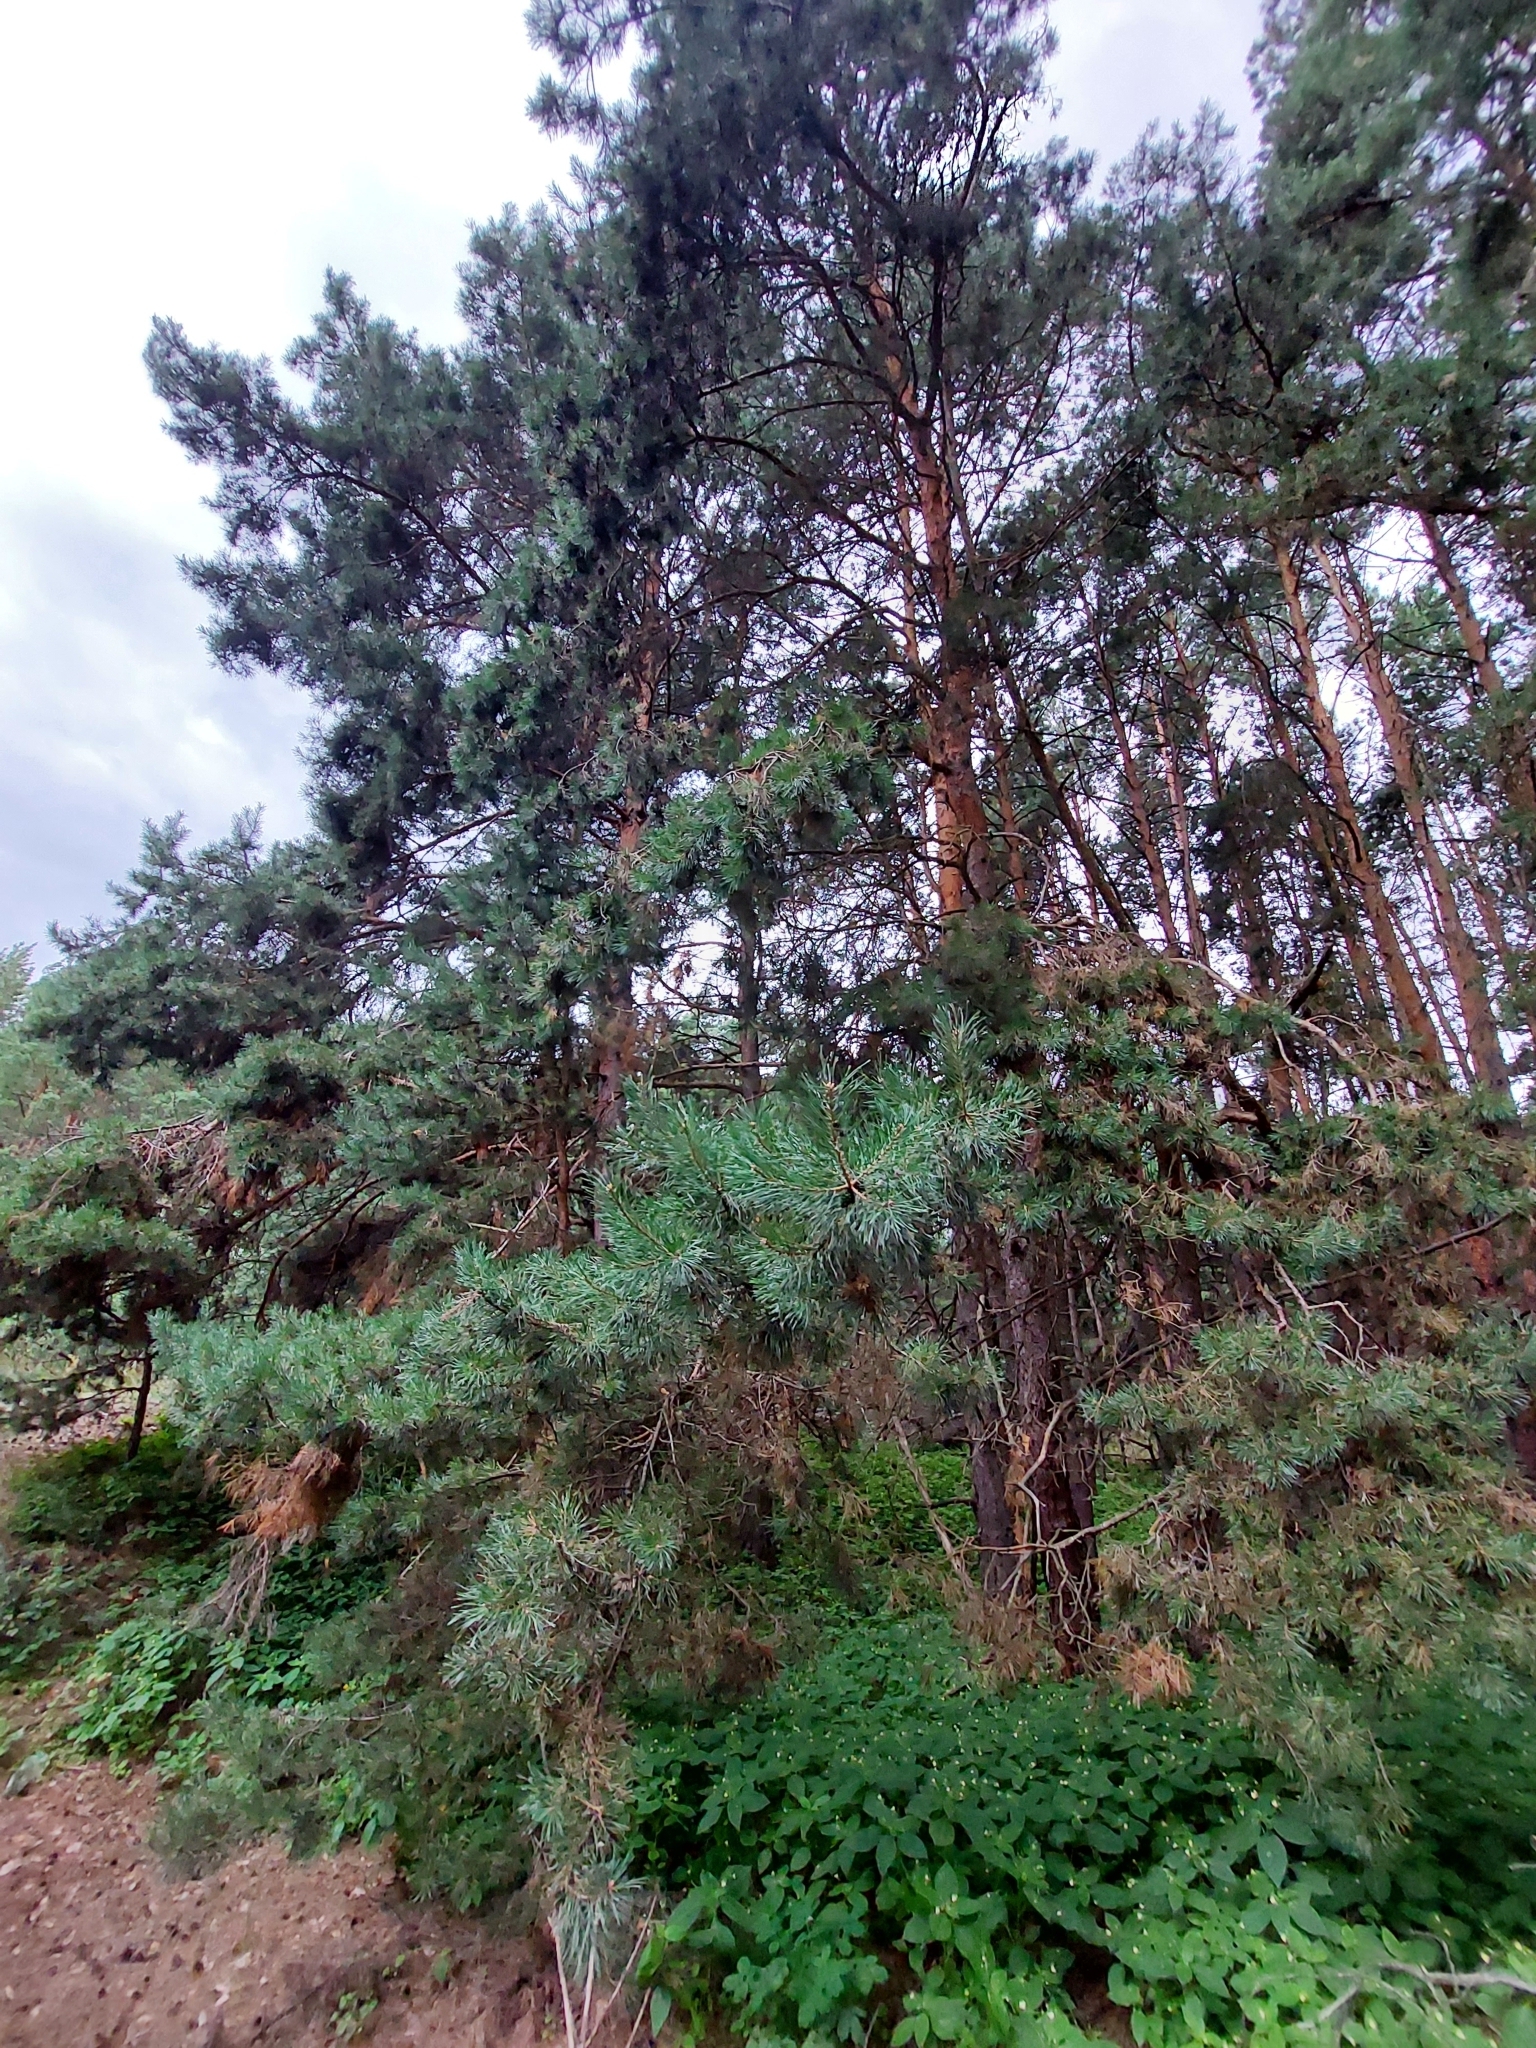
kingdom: Plantae
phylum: Tracheophyta
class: Pinopsida
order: Pinales
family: Pinaceae
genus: Pinus
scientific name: Pinus sylvestris
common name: Scots pine
